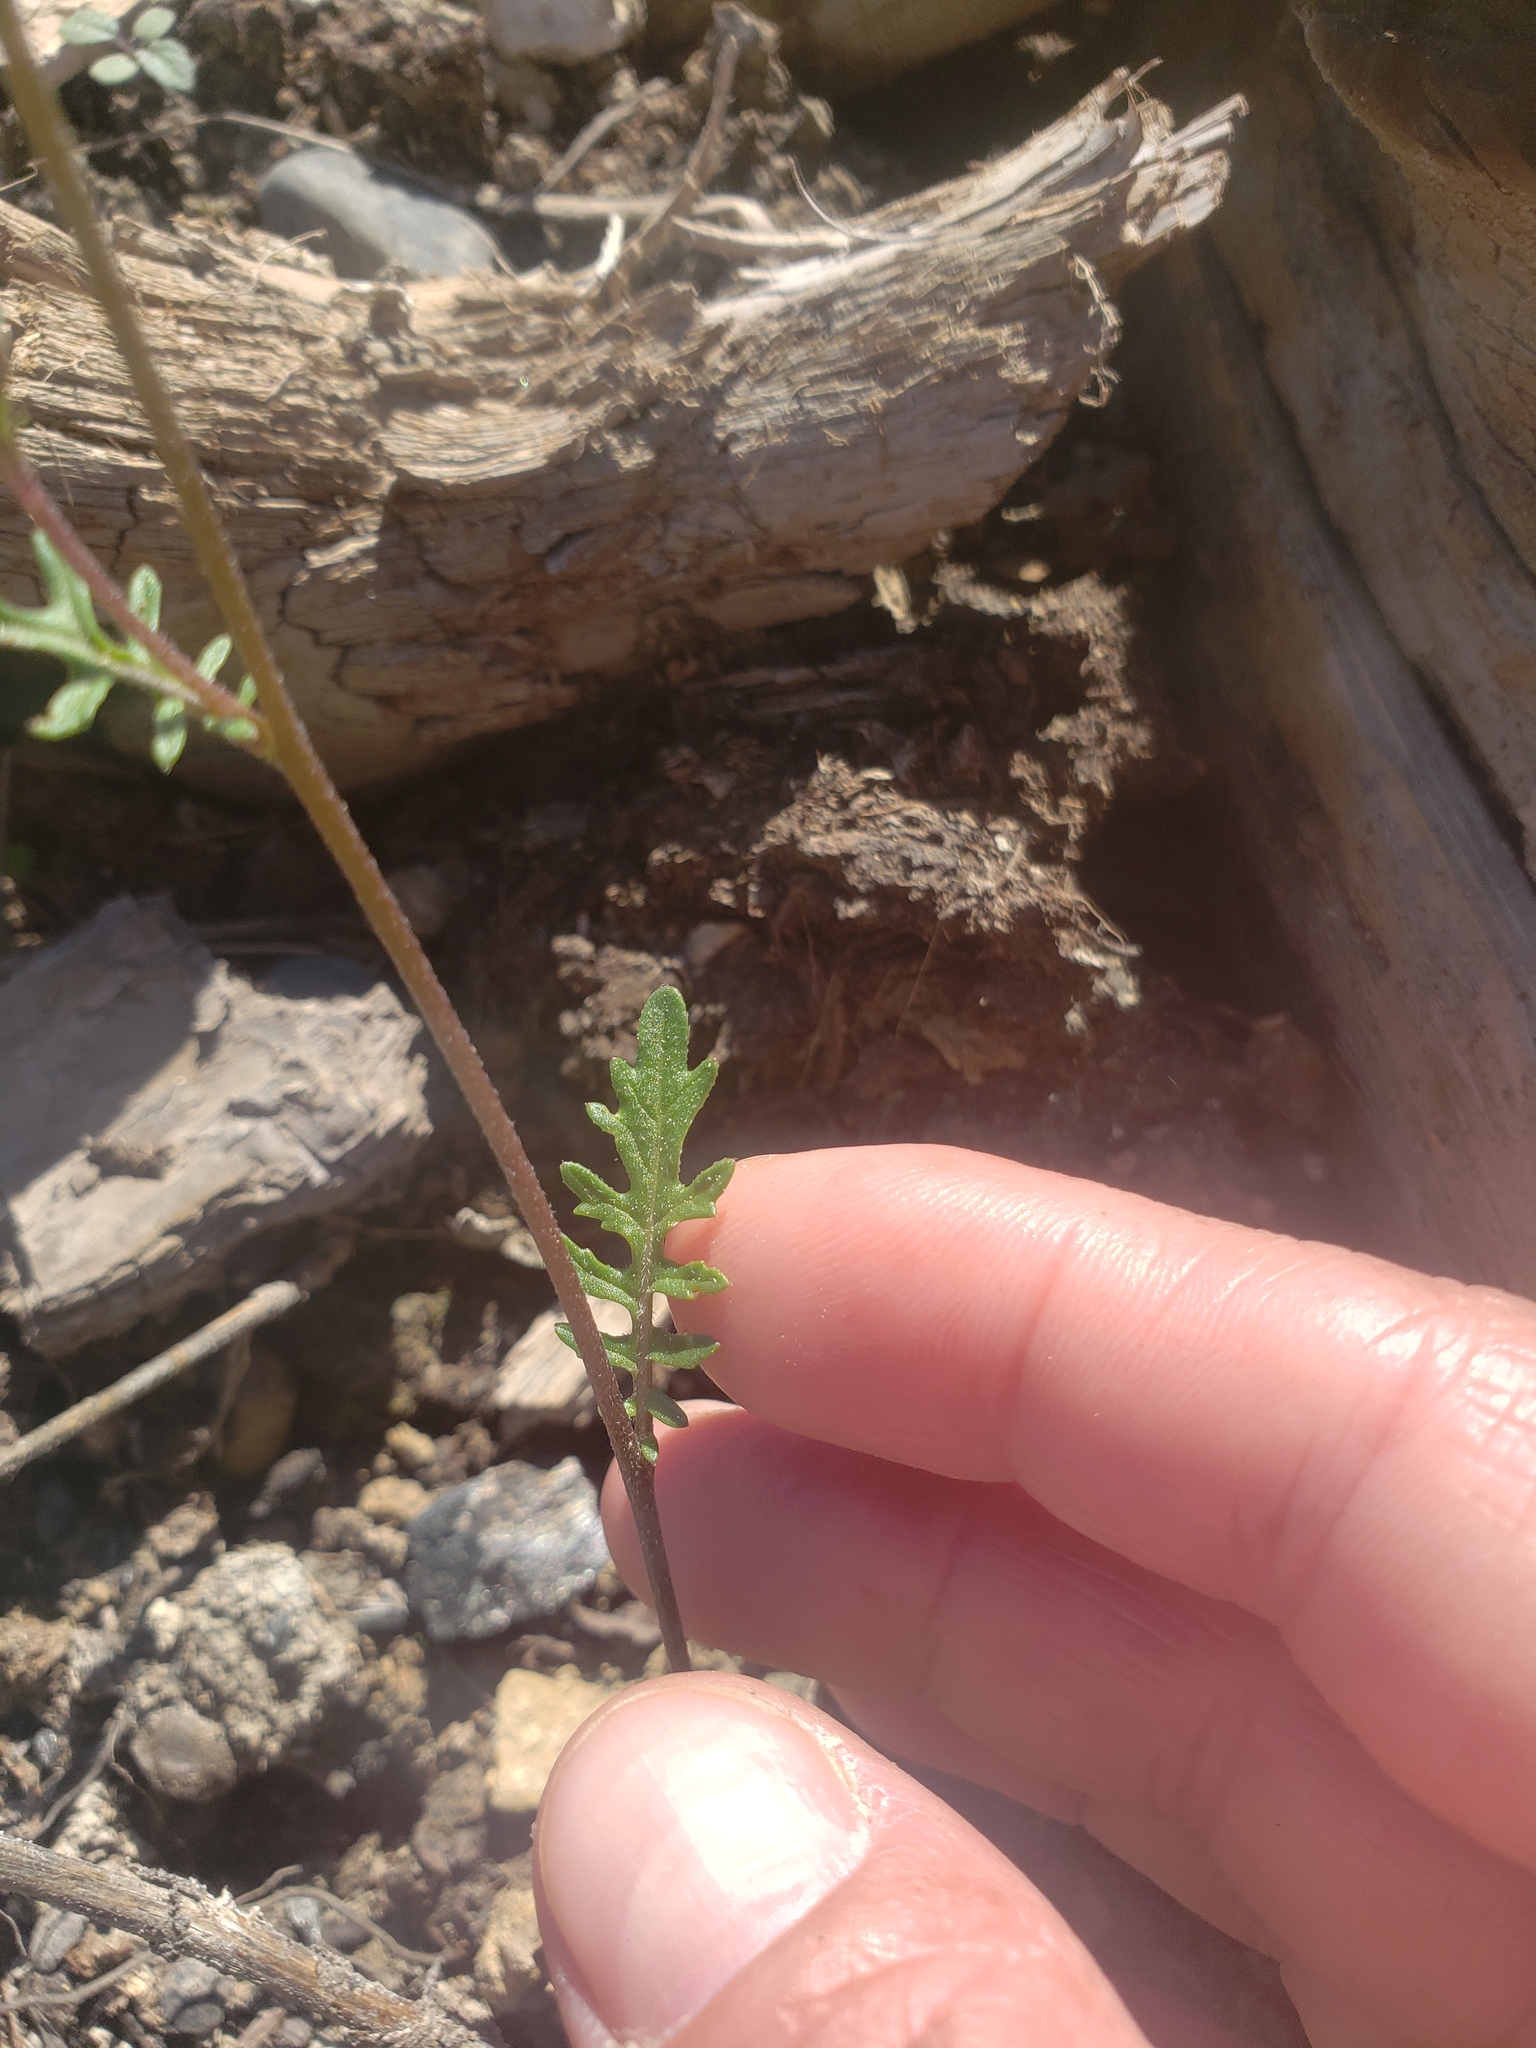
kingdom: Plantae
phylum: Tracheophyta
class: Magnoliopsida
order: Brassicales
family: Brassicaceae
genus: Erucastrum
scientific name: Erucastrum gallicum
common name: Hairy rocket
